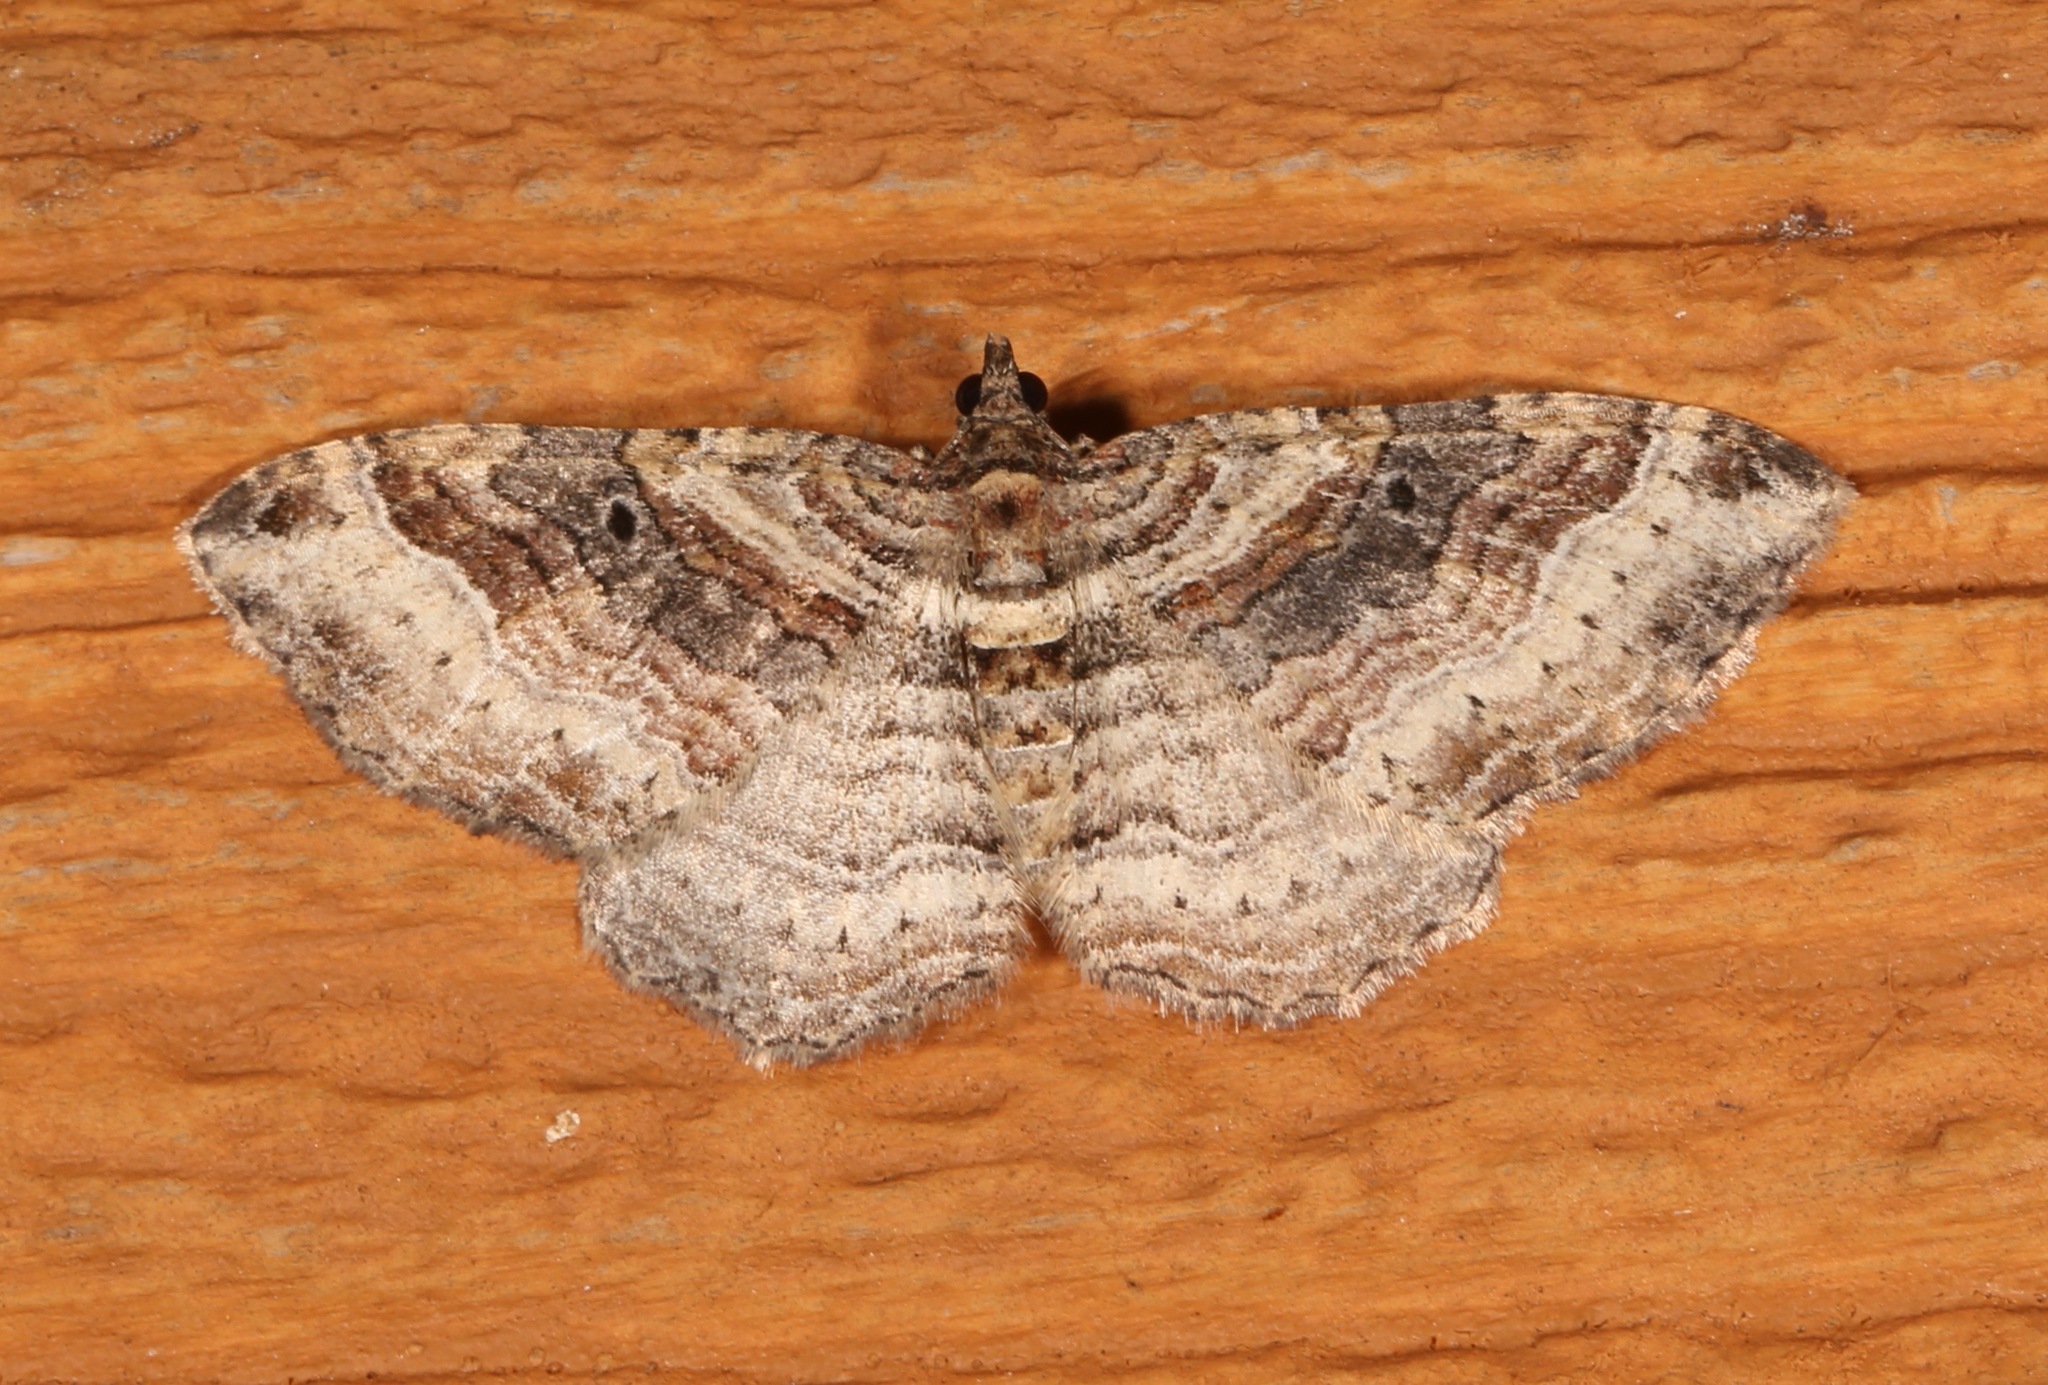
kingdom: Animalia
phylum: Arthropoda
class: Insecta
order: Lepidoptera
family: Geometridae
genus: Costaconvexa
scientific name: Costaconvexa centrostrigaria
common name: Bent-line carpet
